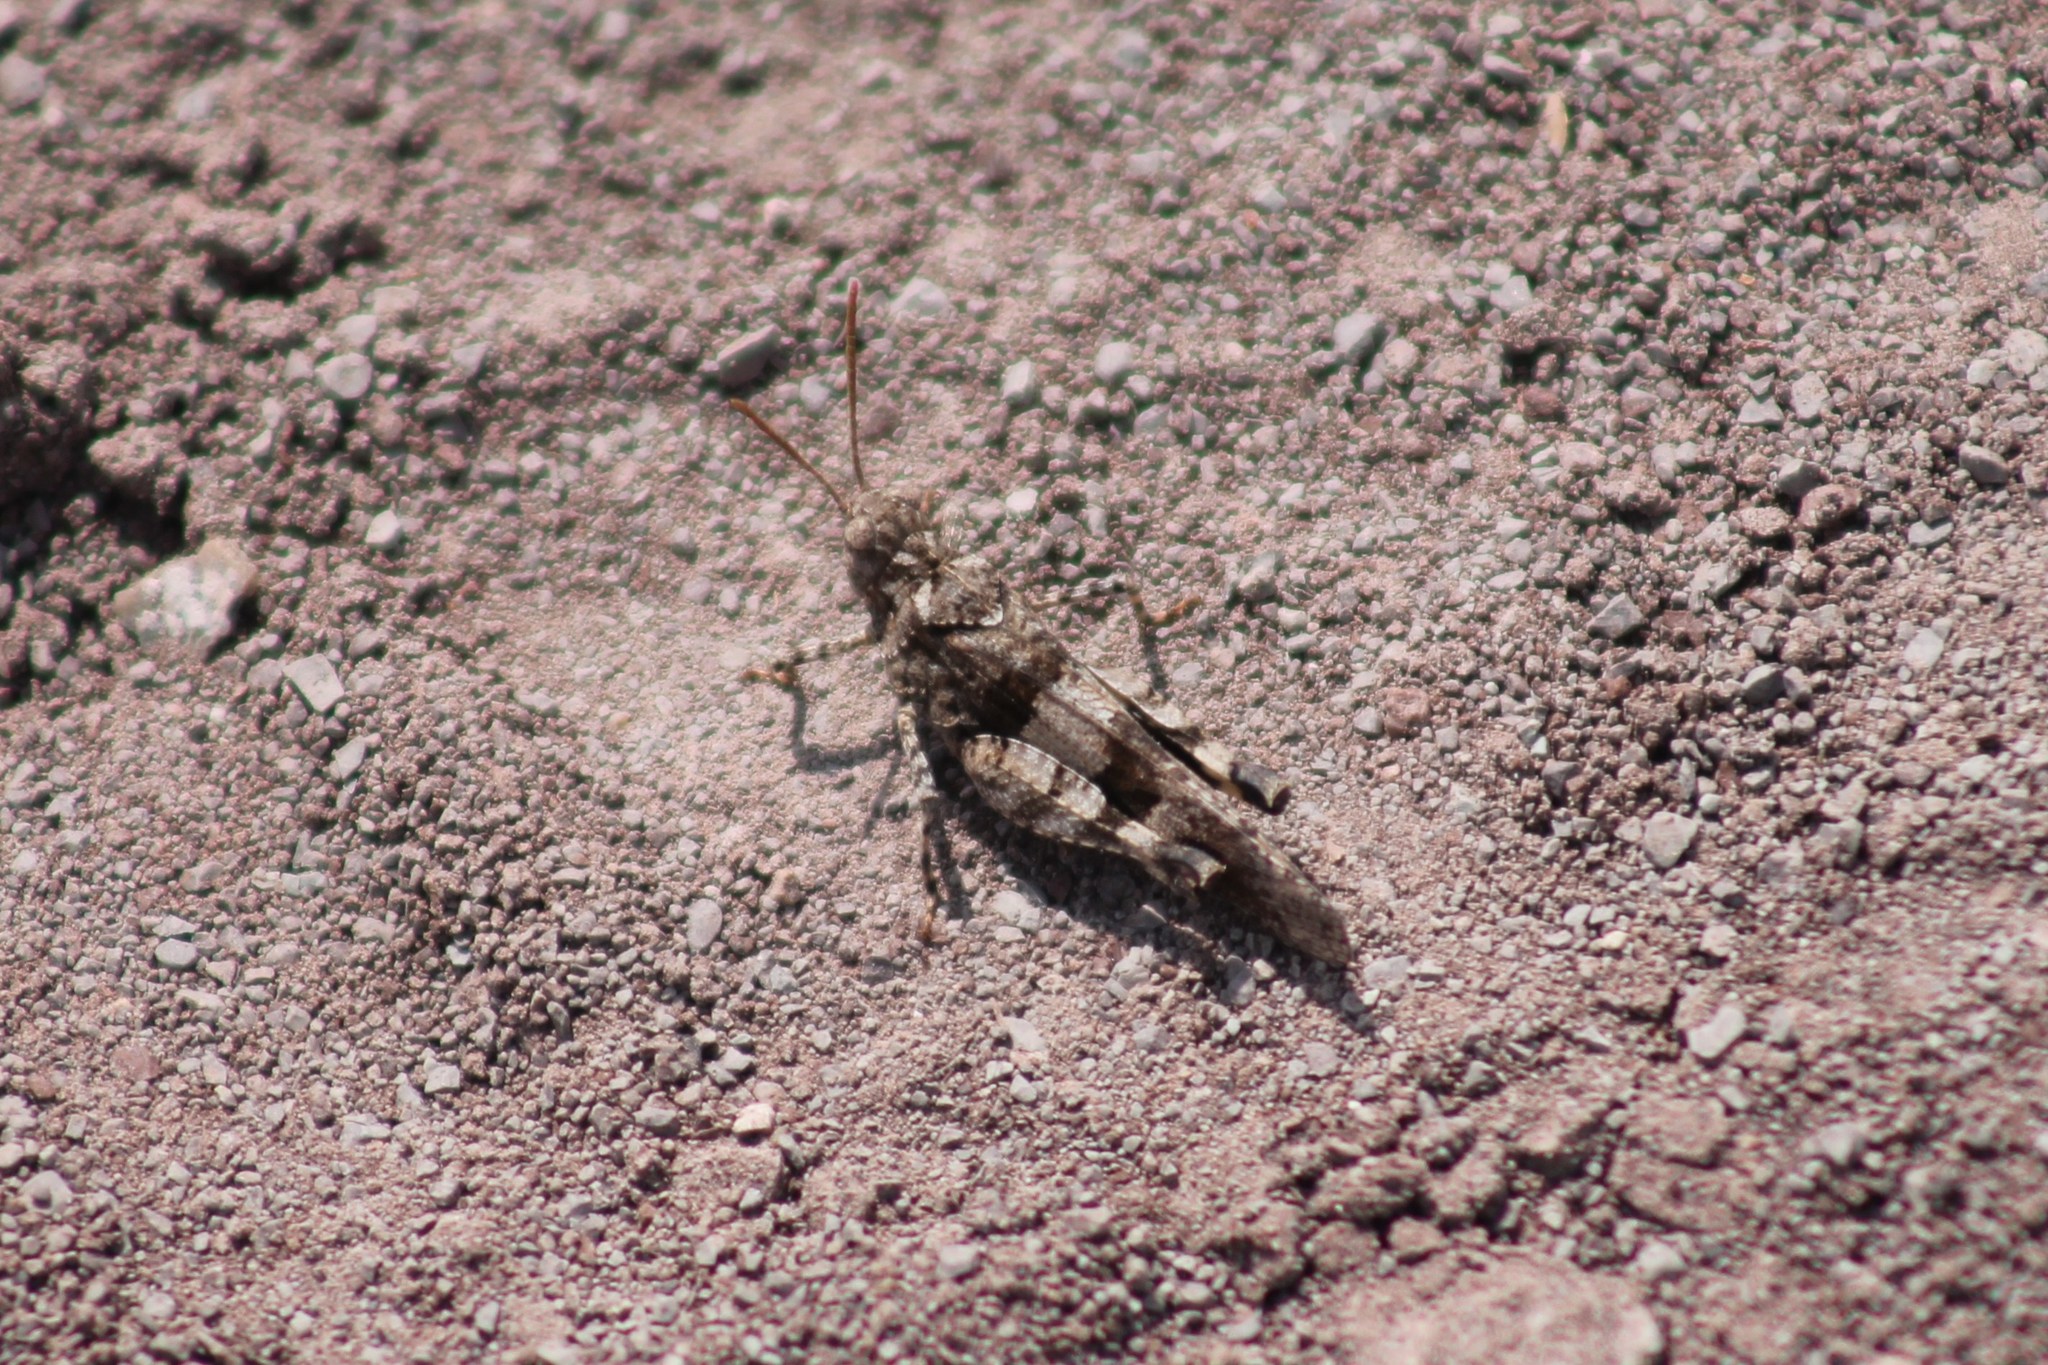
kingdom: Animalia
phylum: Arthropoda
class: Insecta
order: Orthoptera
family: Acrididae
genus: Oedipoda
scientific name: Oedipoda caerulescens
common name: Blue-winged grasshopper
